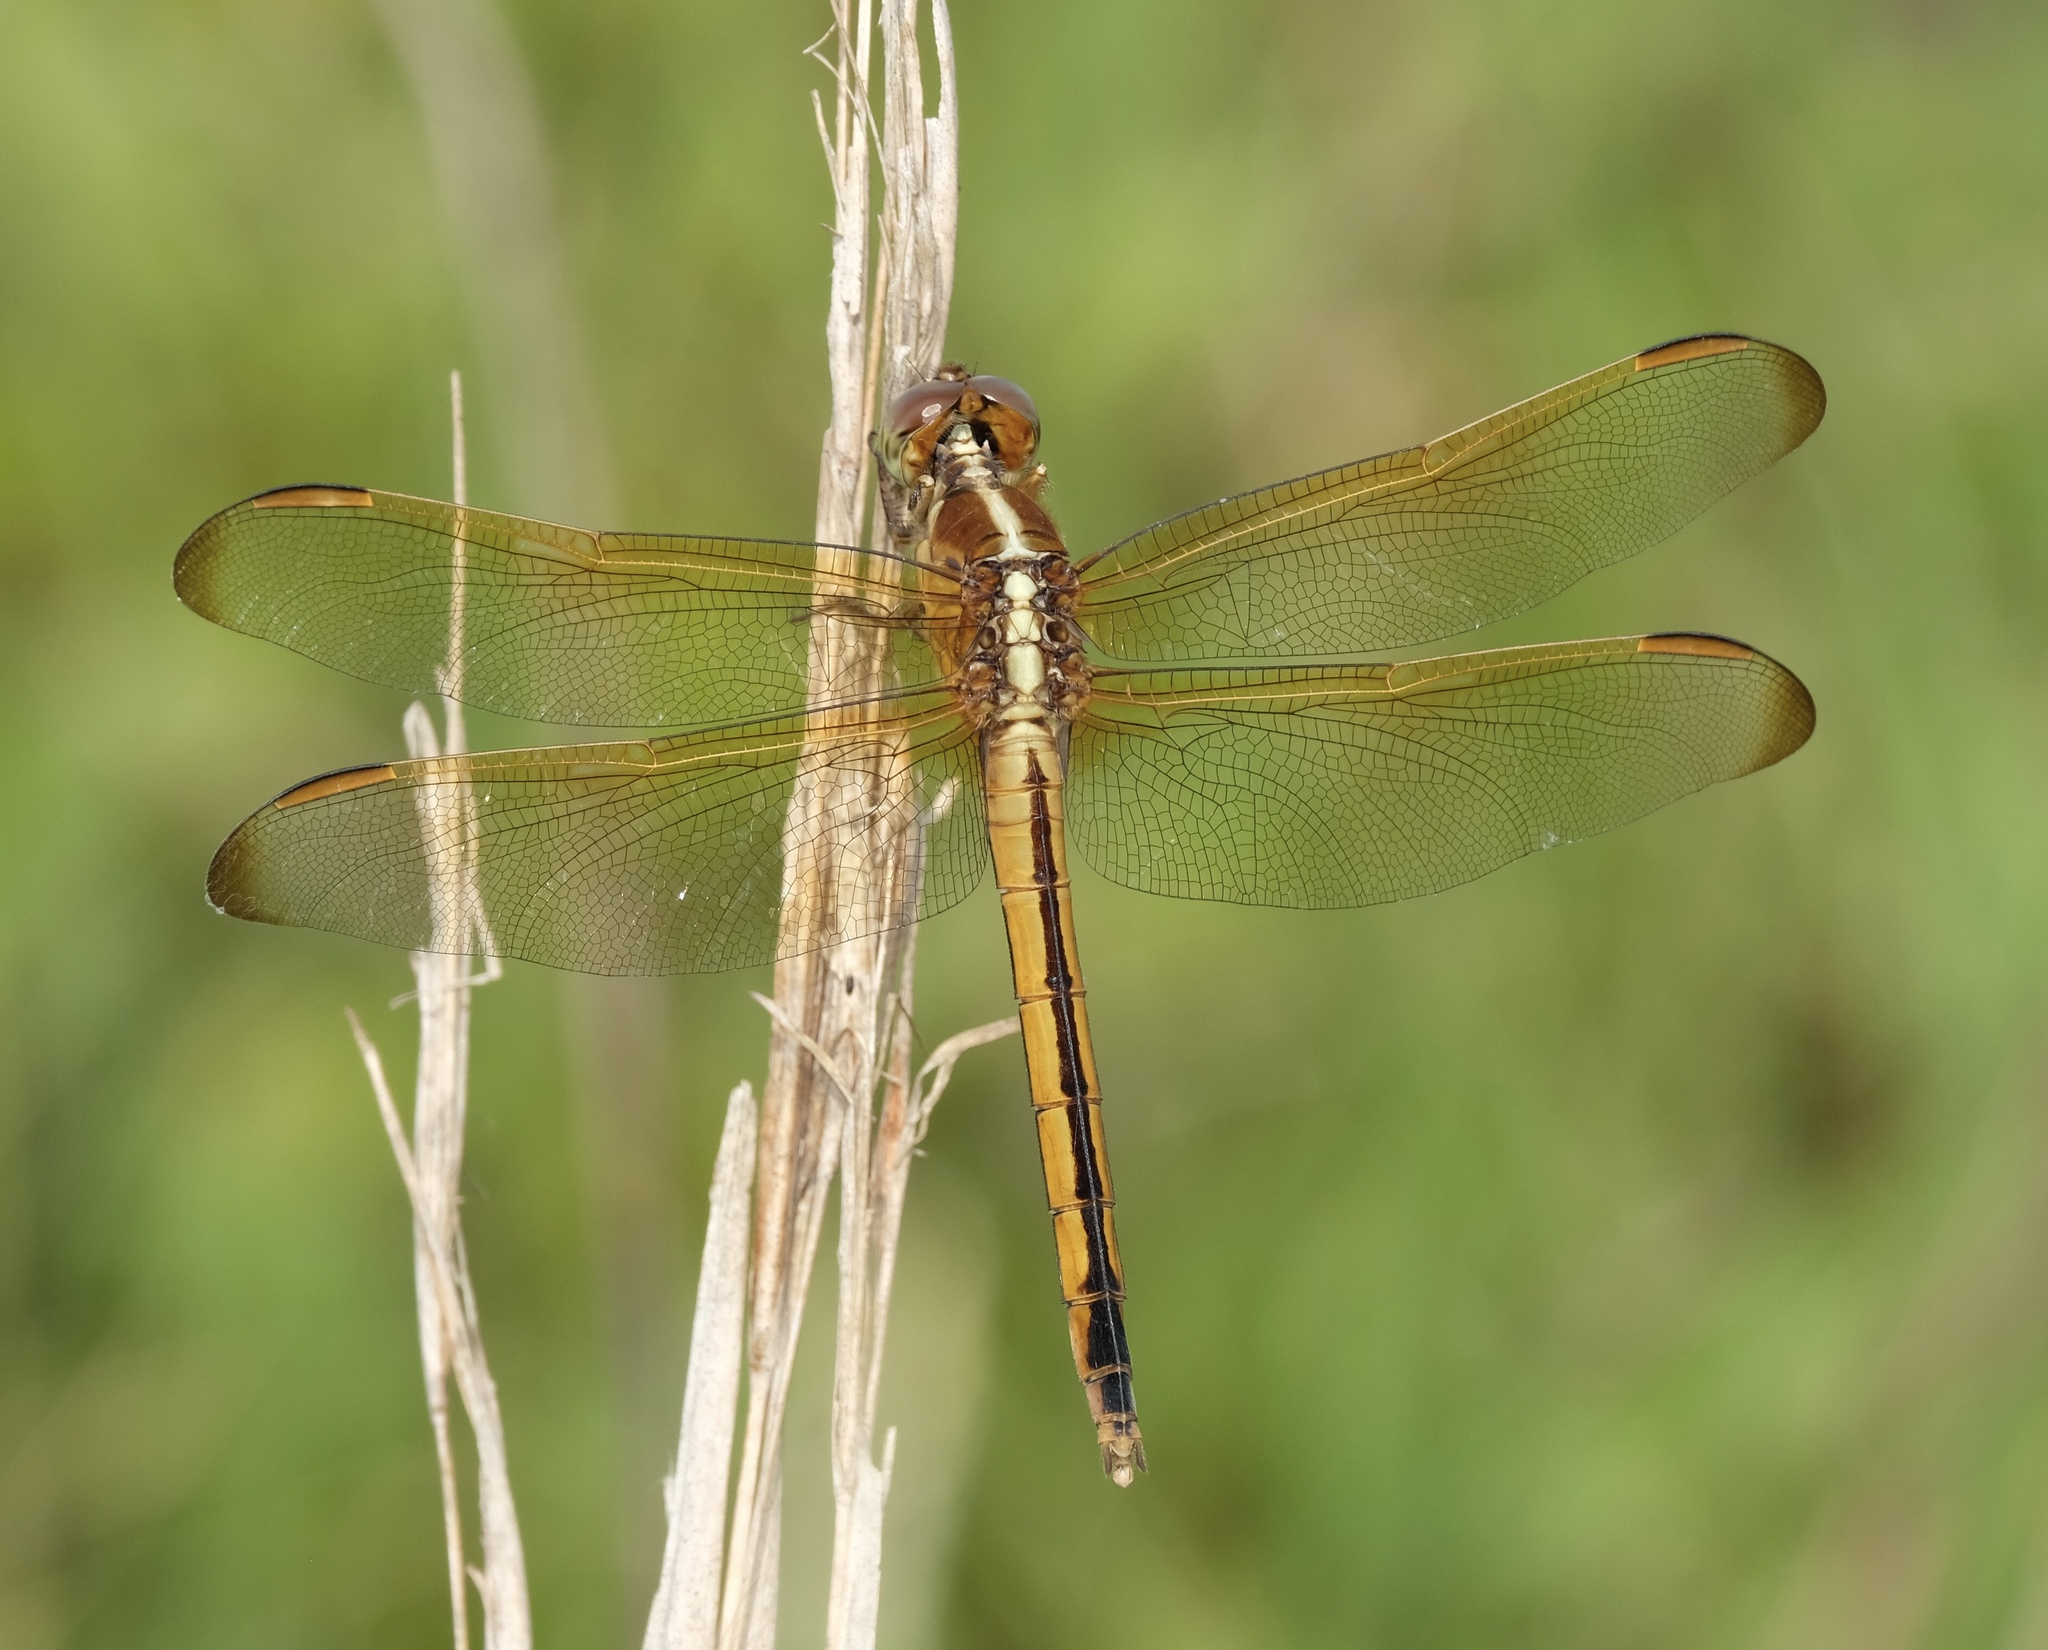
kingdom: Animalia
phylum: Arthropoda
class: Insecta
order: Odonata
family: Libellulidae
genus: Libellula
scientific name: Libellula needhami
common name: Needham's skimmer
